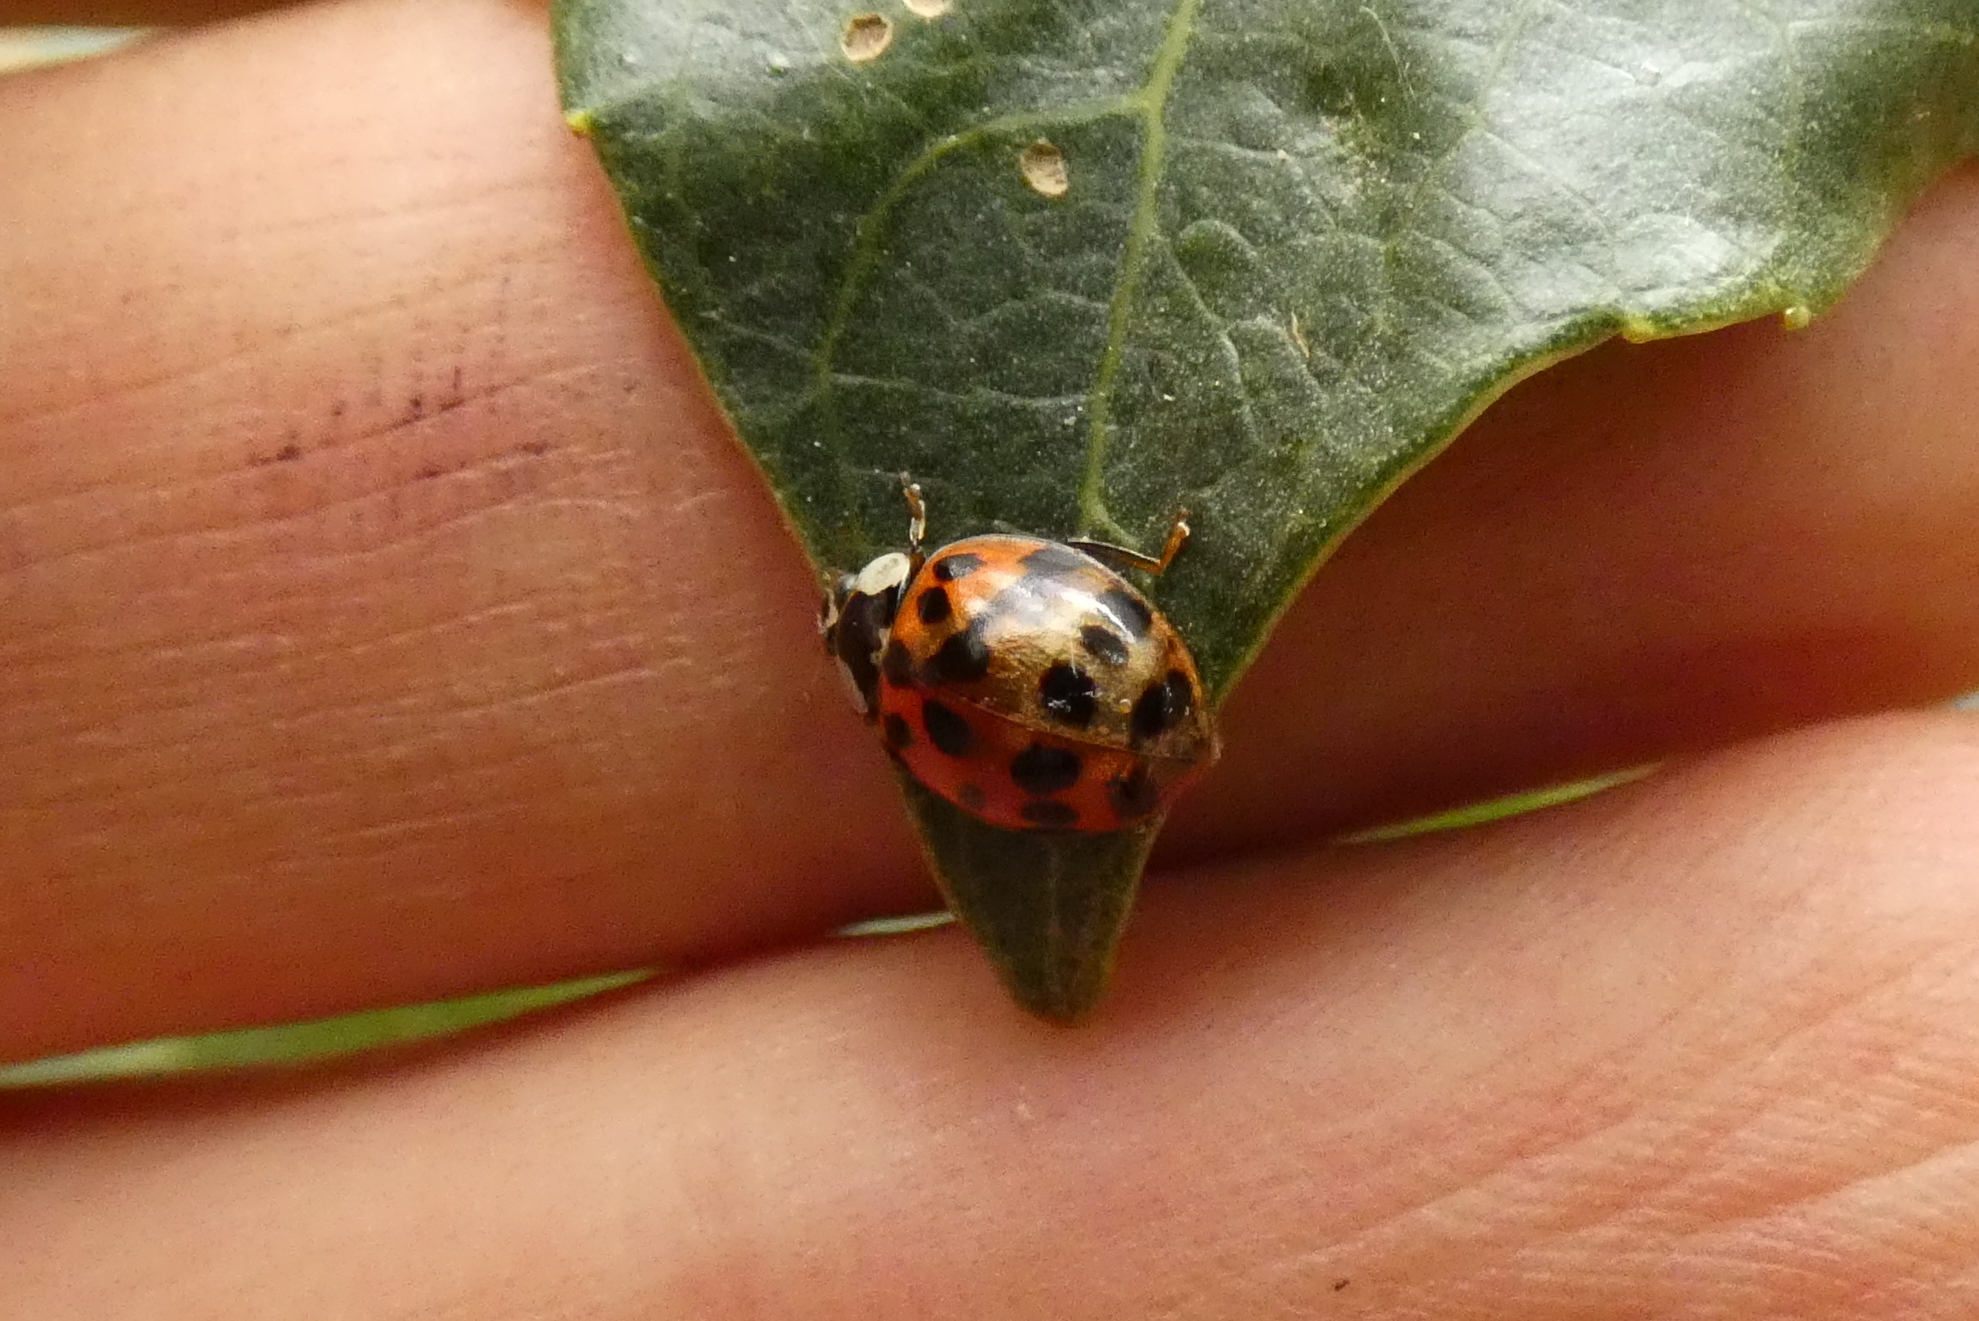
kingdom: Animalia
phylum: Arthropoda
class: Insecta
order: Coleoptera
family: Coccinellidae
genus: Harmonia
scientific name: Harmonia axyridis
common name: Harlequin ladybird
